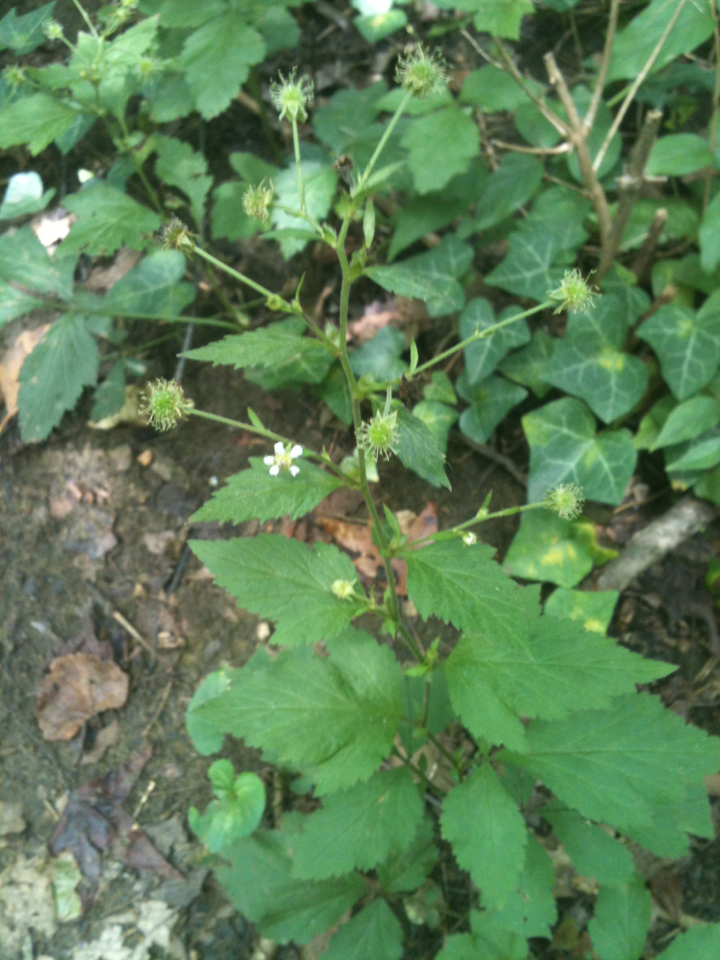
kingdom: Plantae
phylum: Tracheophyta
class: Magnoliopsida
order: Rosales
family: Rosaceae
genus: Geum
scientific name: Geum canadense
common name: White avens
